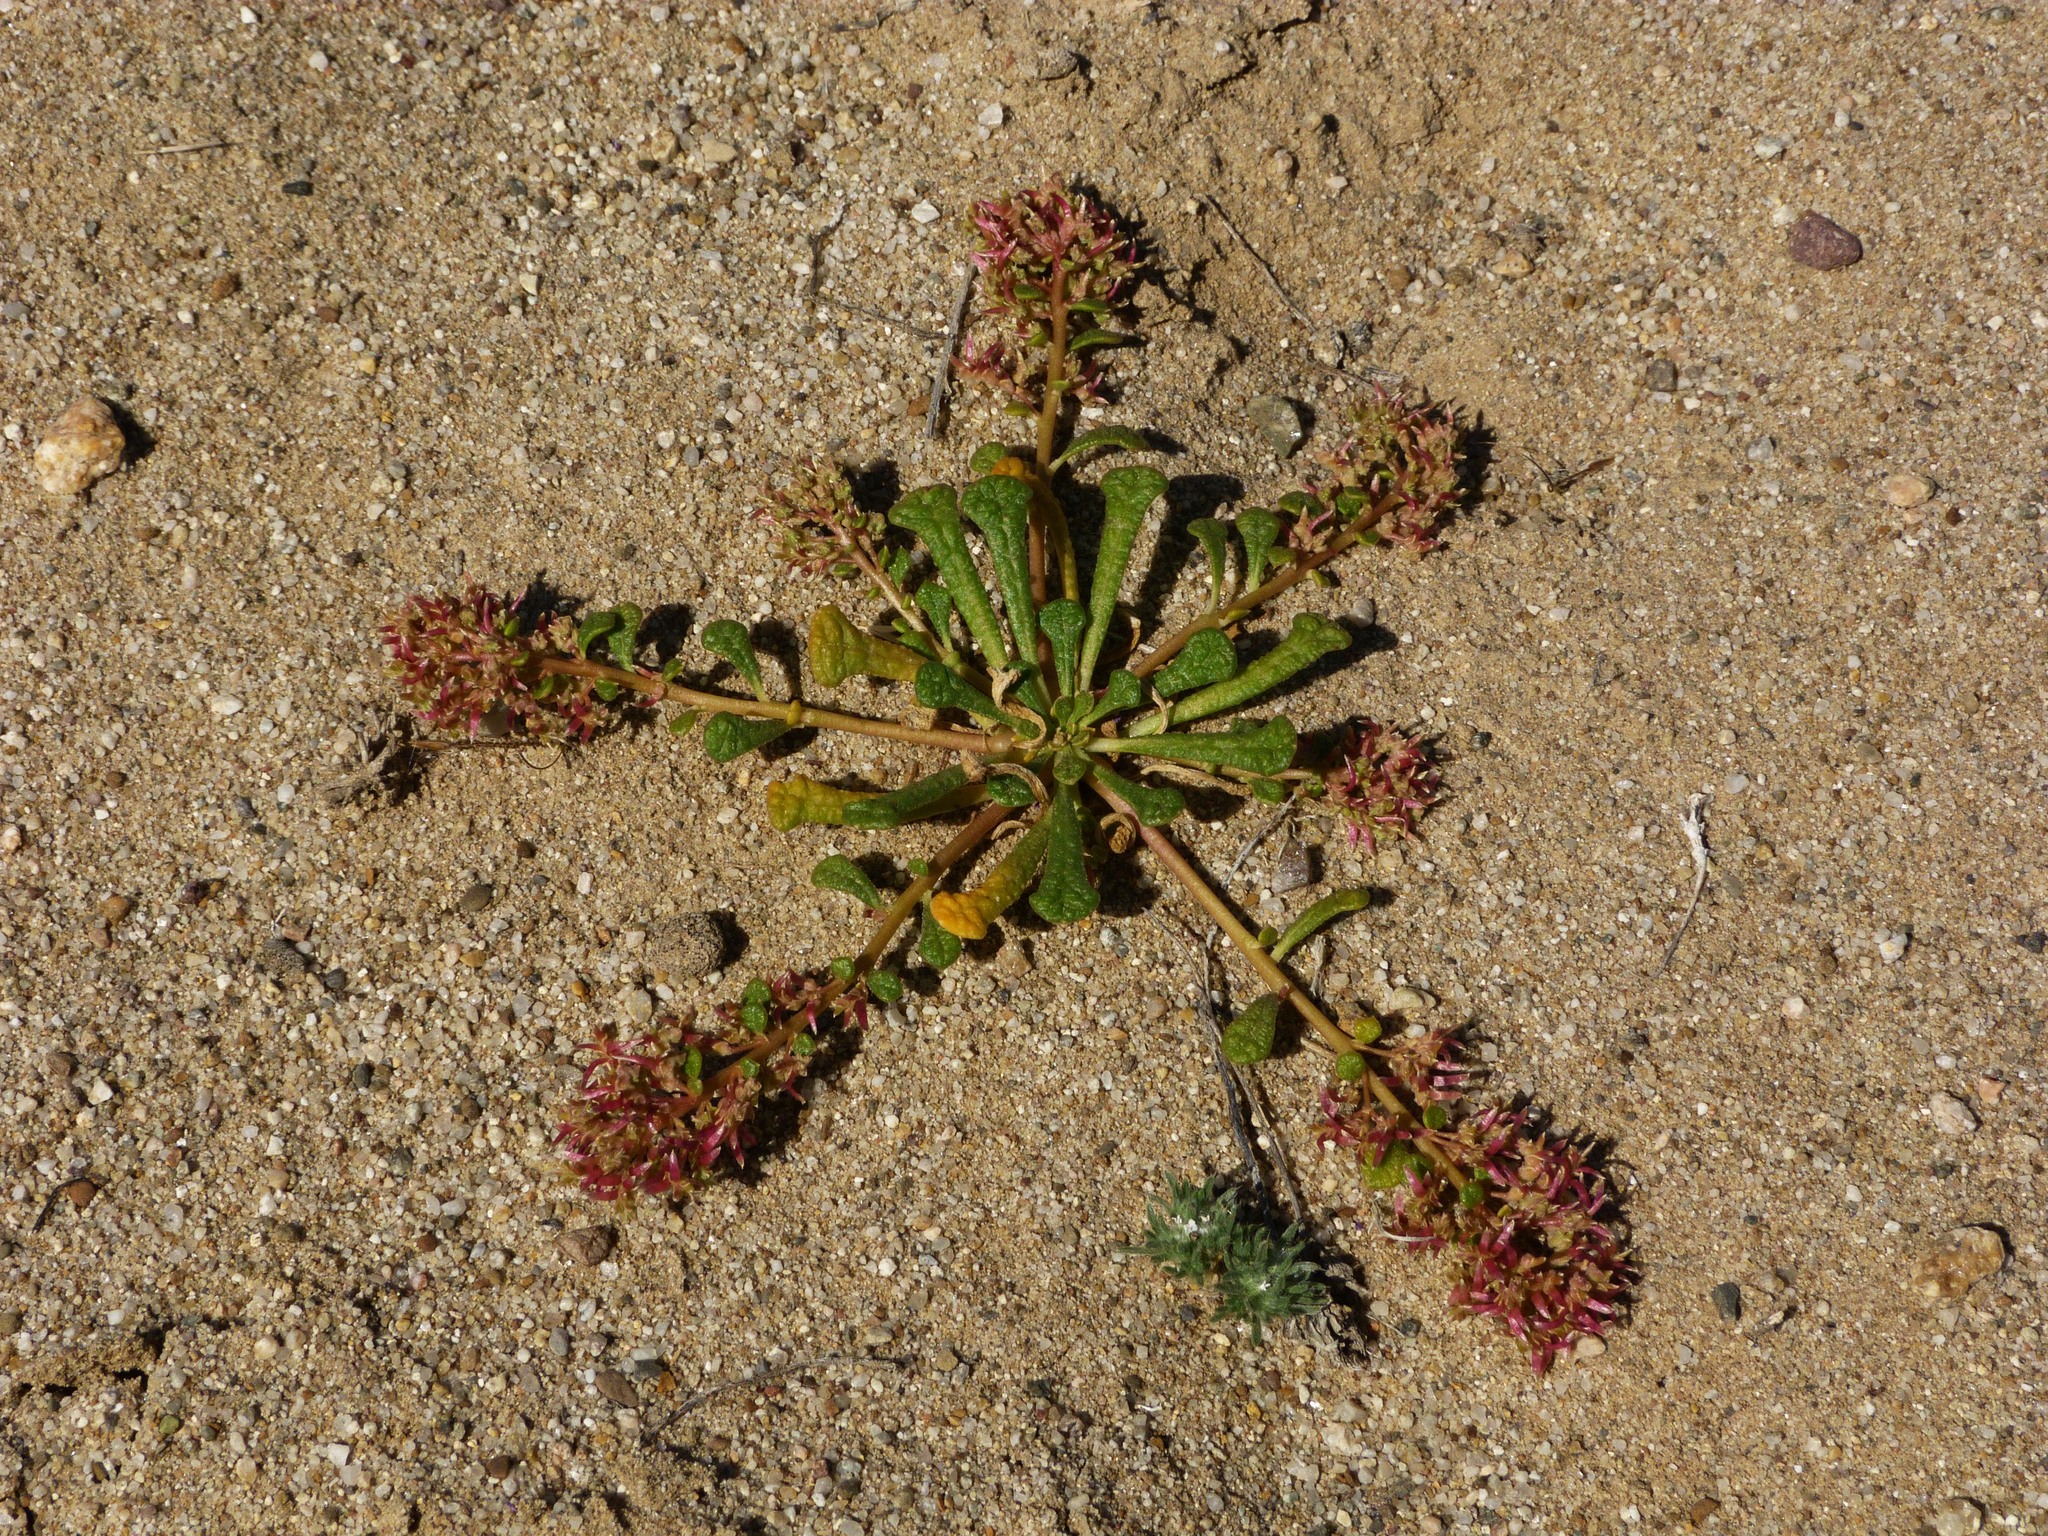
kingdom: Plantae
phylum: Tracheophyta
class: Magnoliopsida
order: Caryophyllales
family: Montiaceae
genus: Calyptridium
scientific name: Calyptridium monandrum
